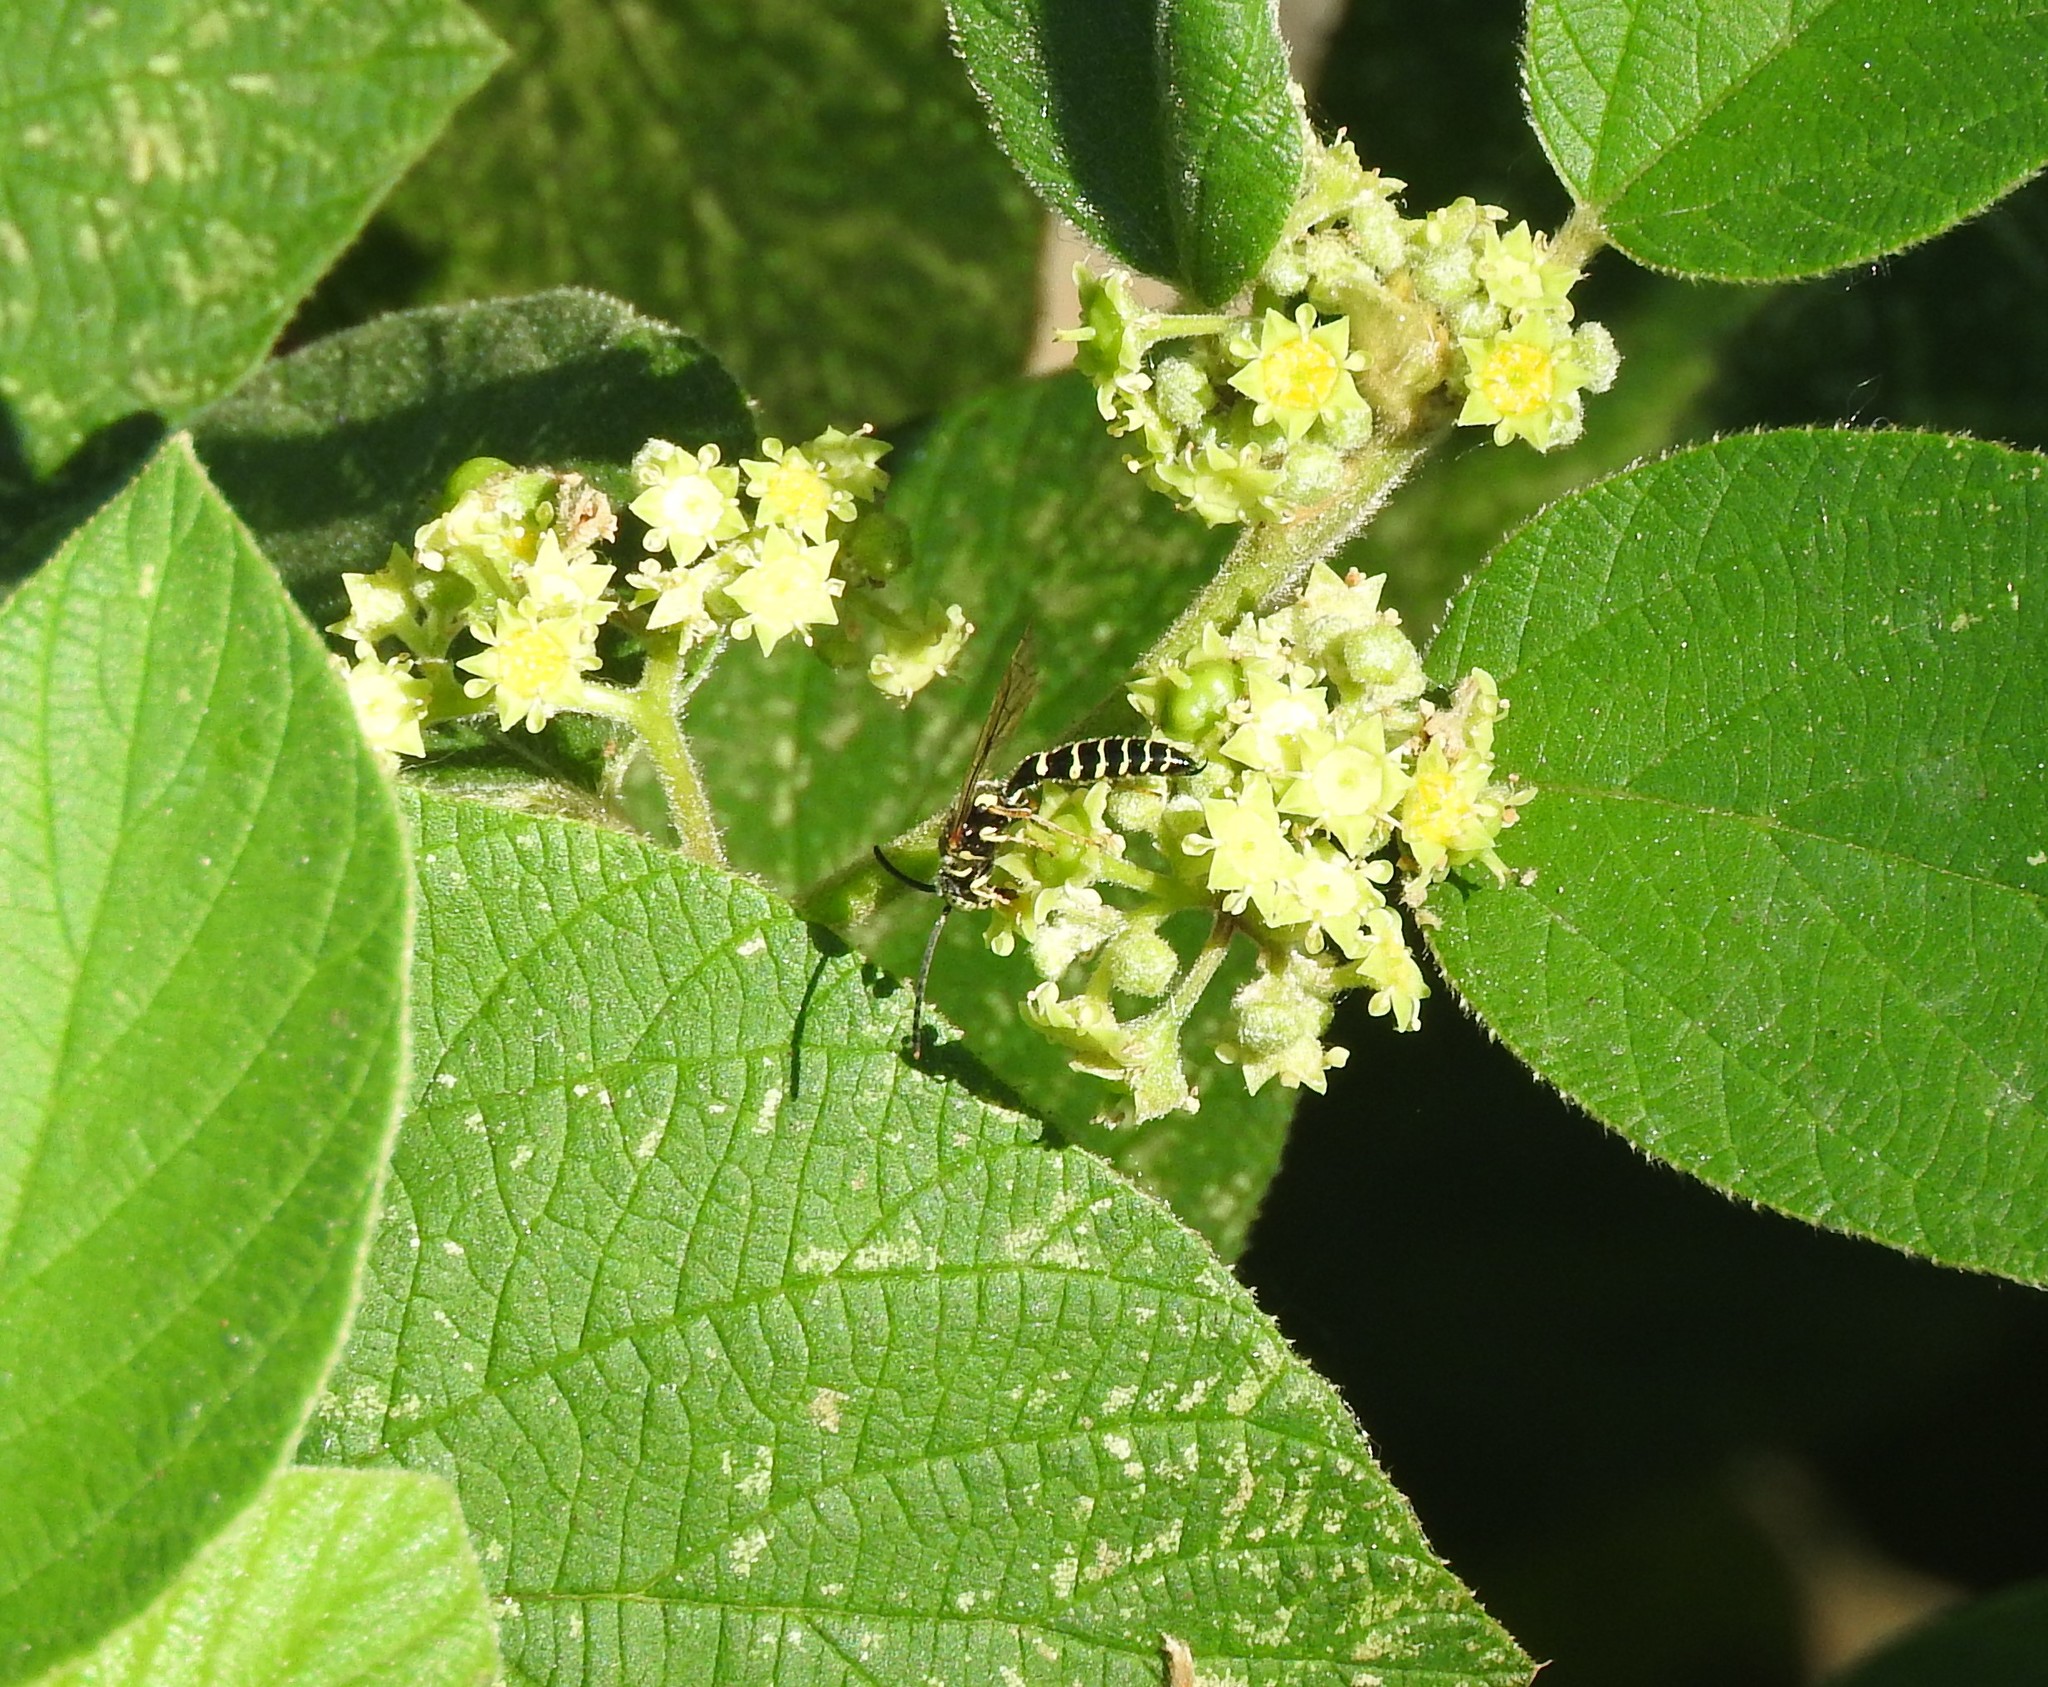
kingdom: Animalia
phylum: Arthropoda
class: Insecta
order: Hymenoptera
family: Tiphiidae
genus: Myzinum
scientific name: Myzinum
